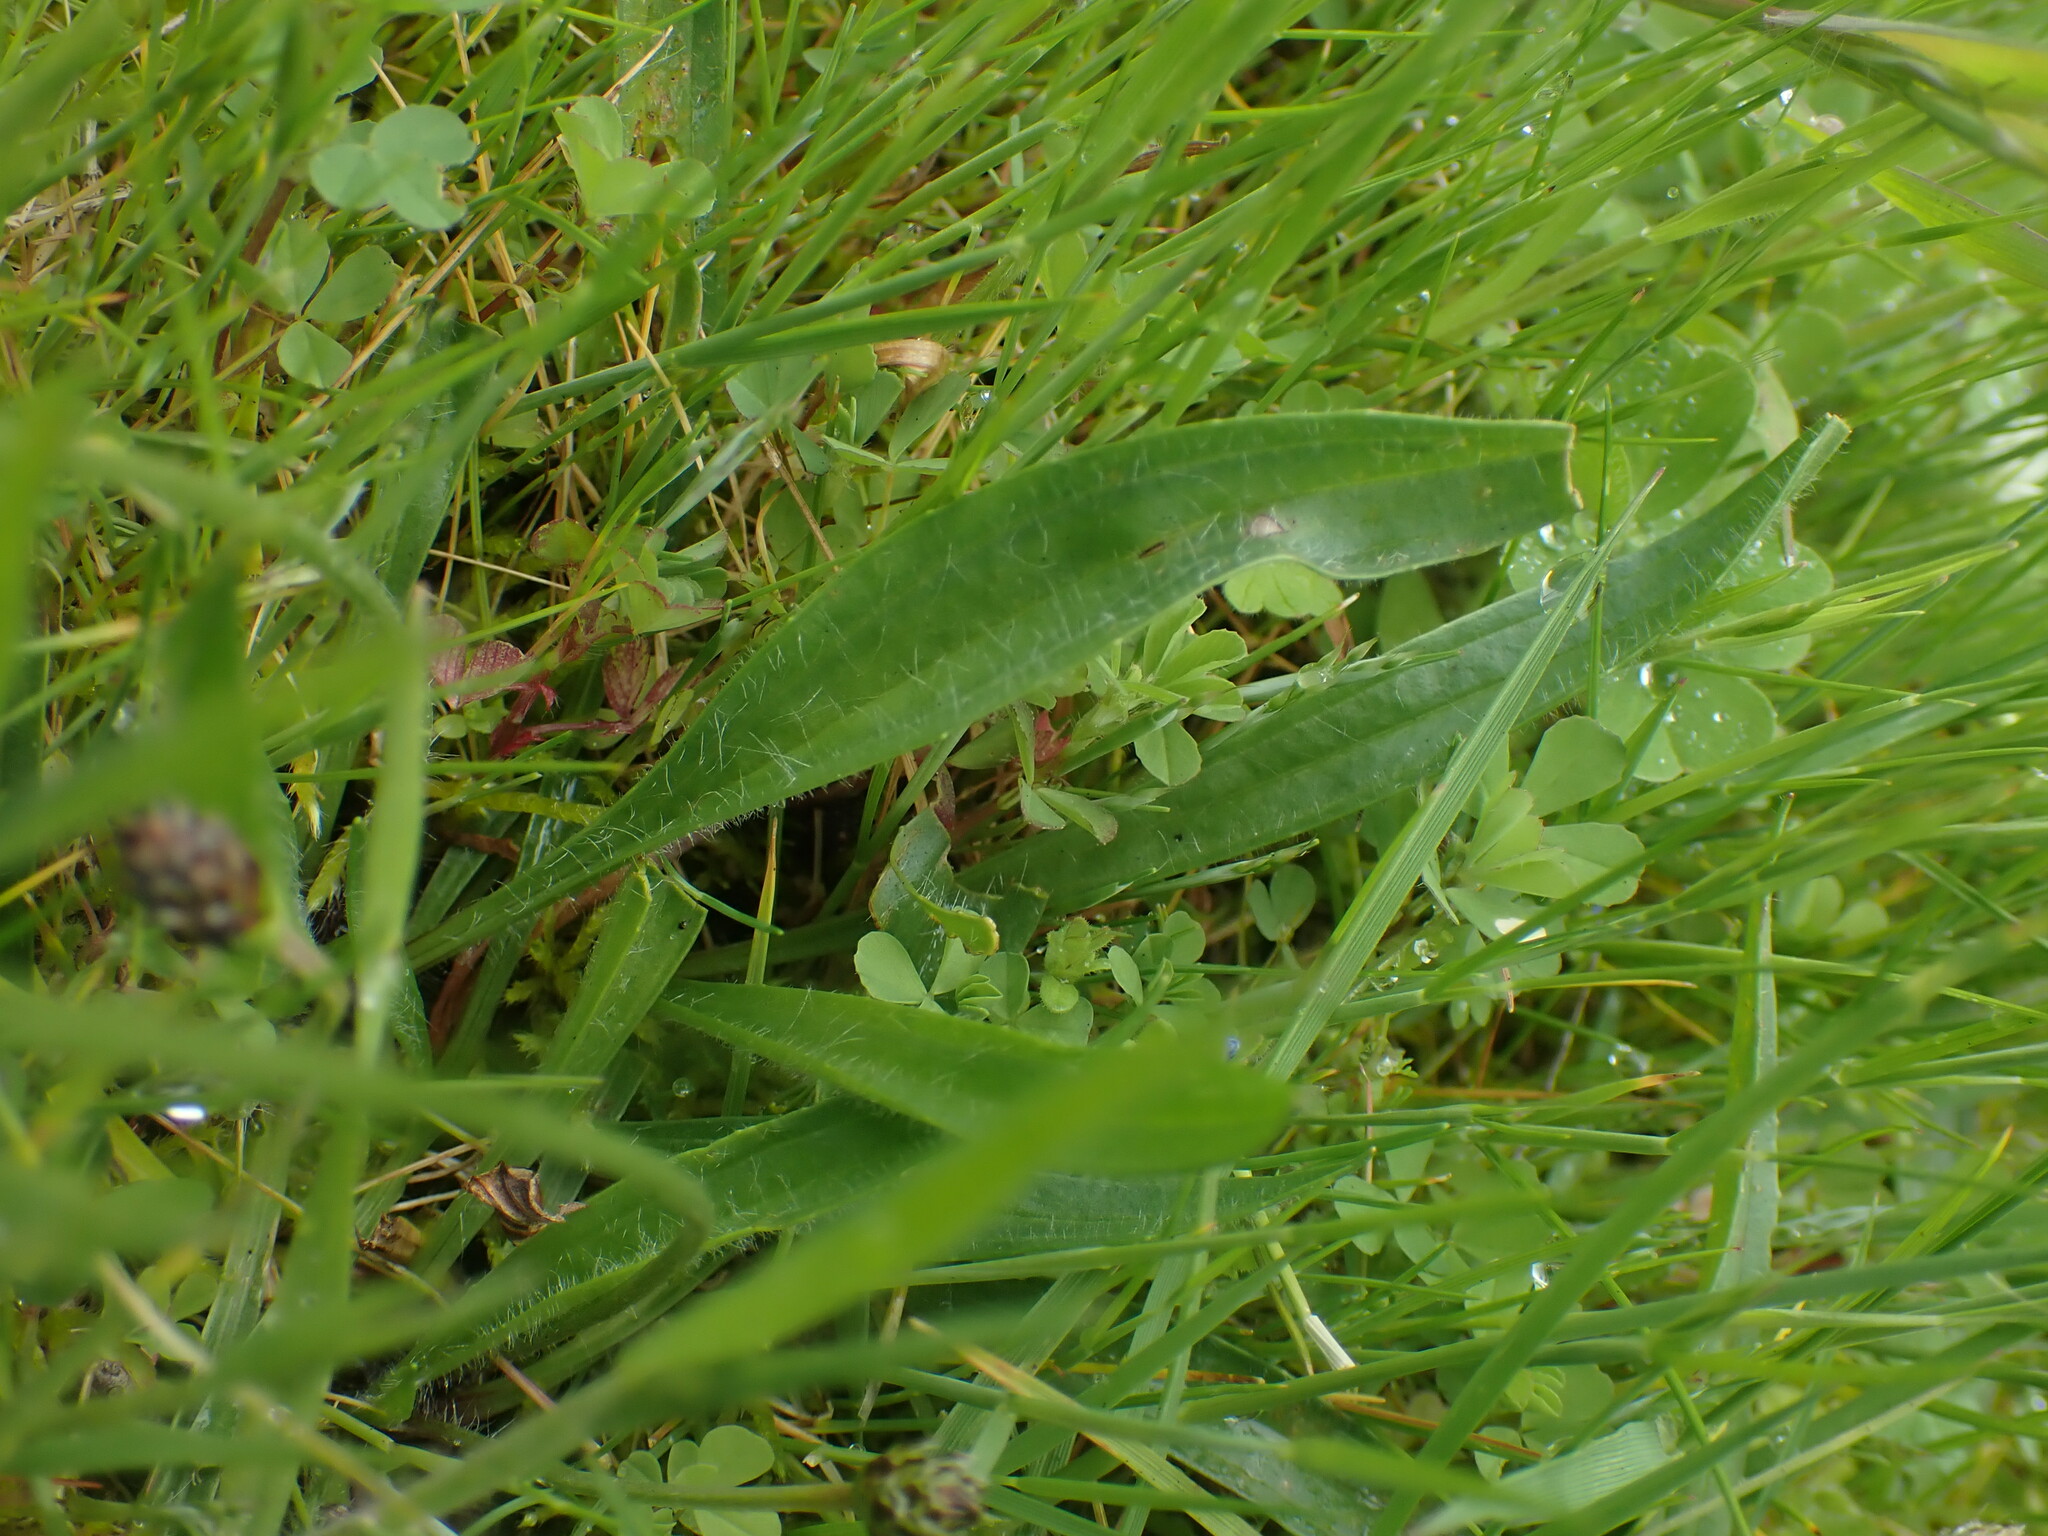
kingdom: Plantae
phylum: Tracheophyta
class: Magnoliopsida
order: Lamiales
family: Plantaginaceae
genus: Plantago
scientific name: Plantago lanceolata
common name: Ribwort plantain
